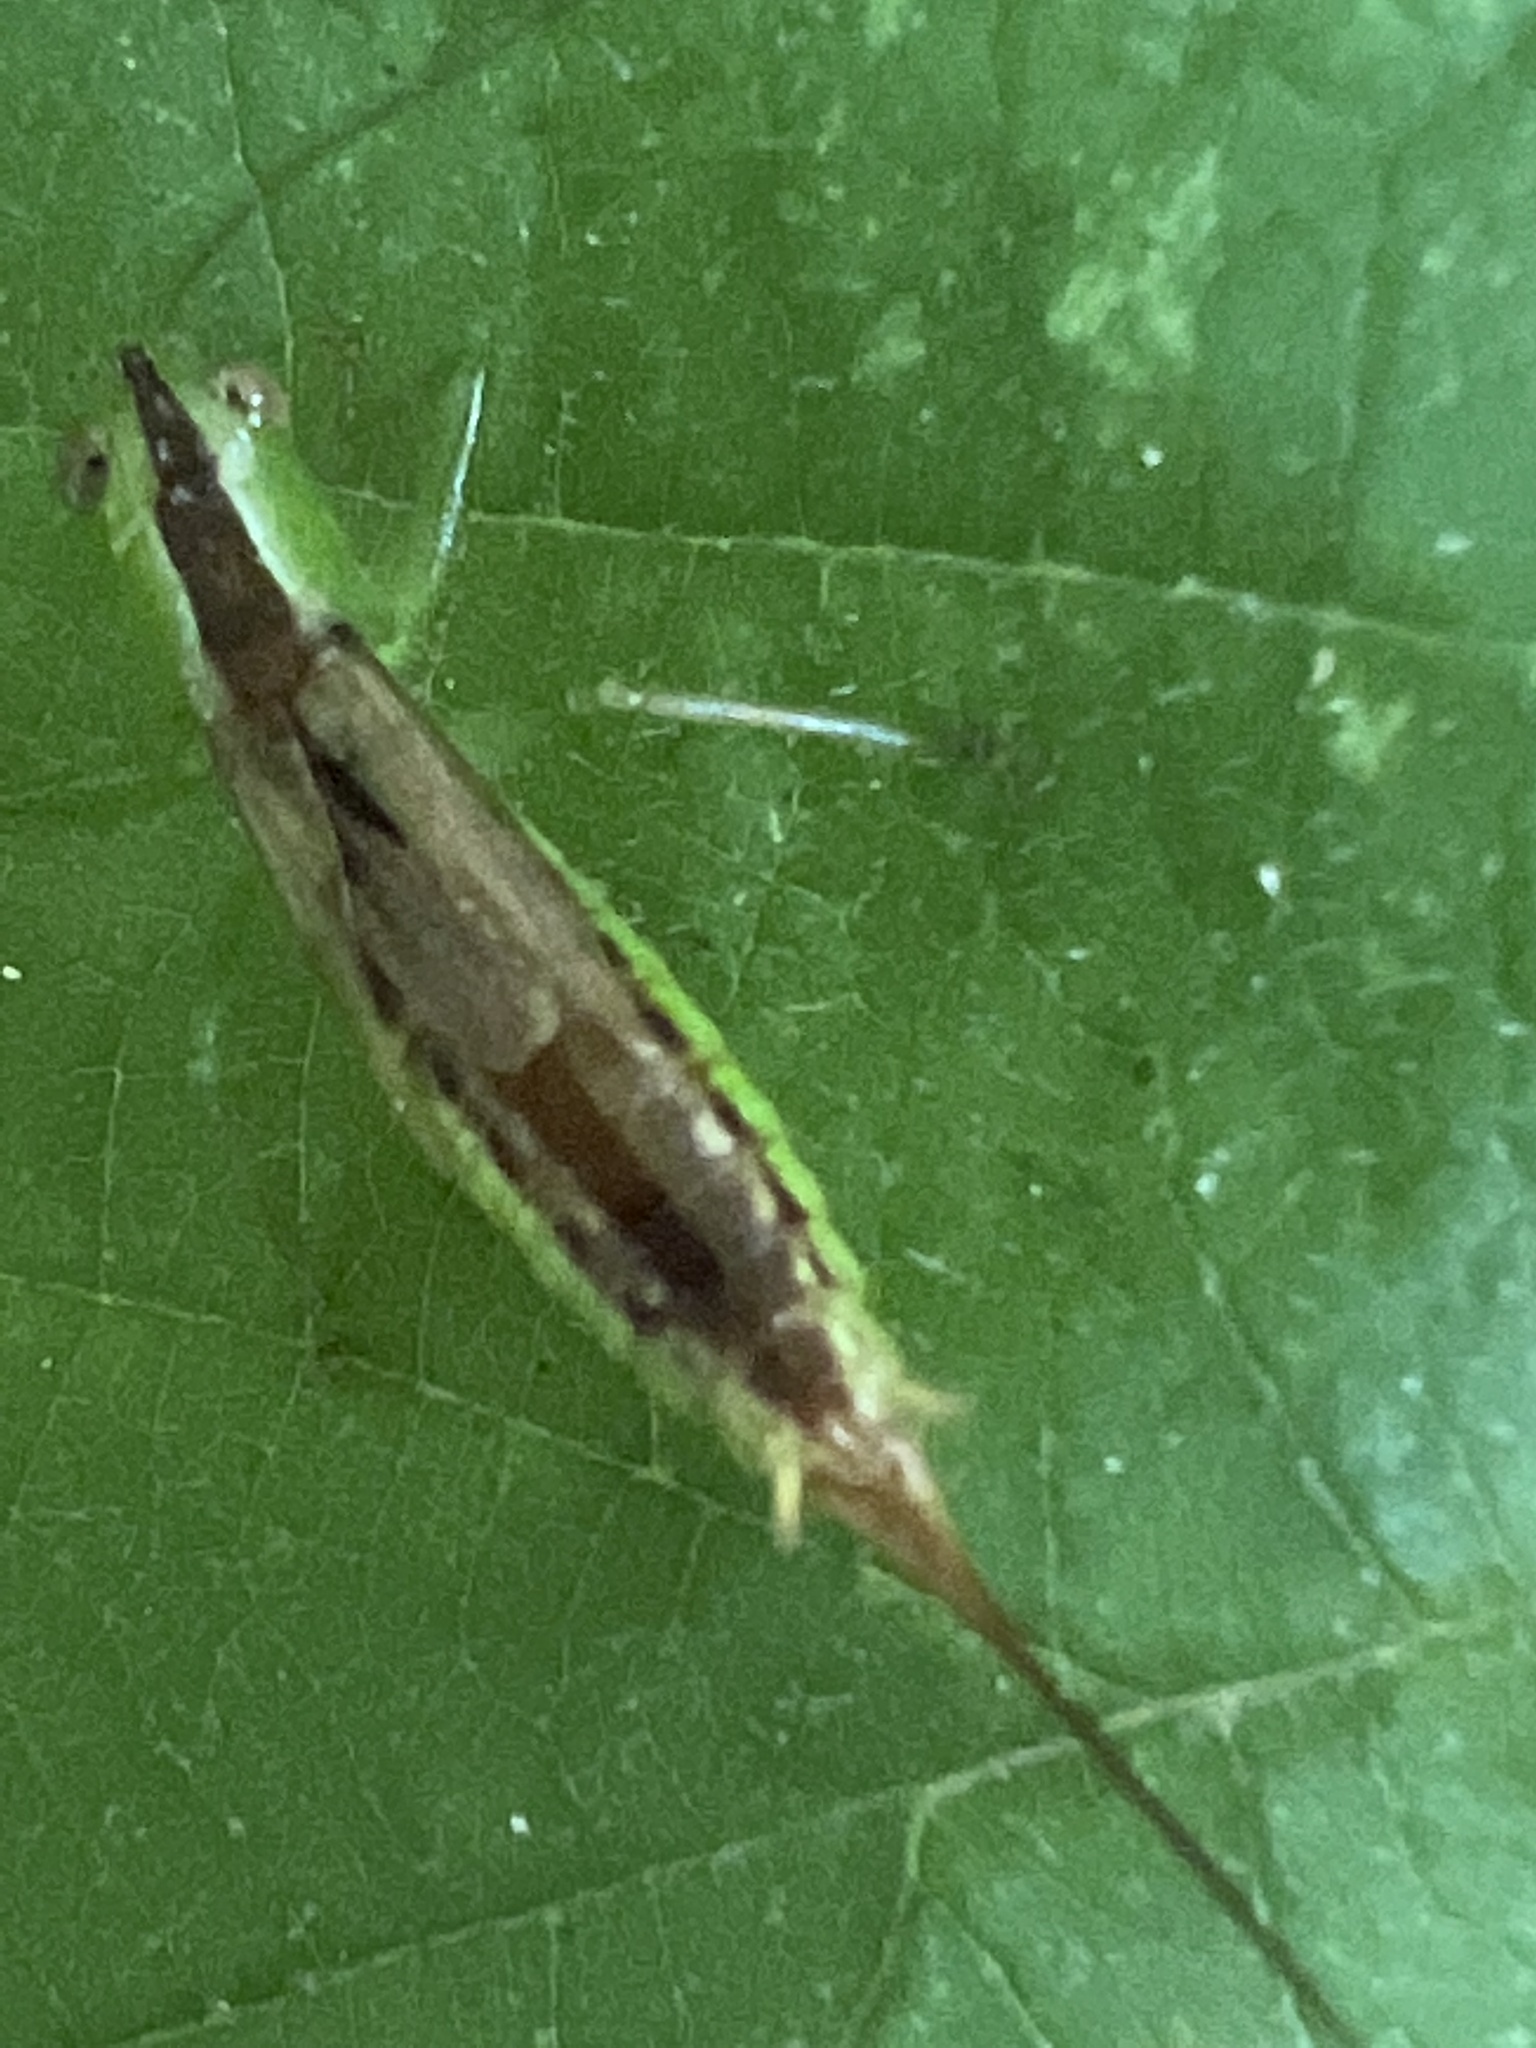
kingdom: Animalia
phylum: Arthropoda
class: Insecta
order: Orthoptera
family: Tettigoniidae
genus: Conocephalus
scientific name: Conocephalus brevipennis
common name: Short-winged meadow katydid
